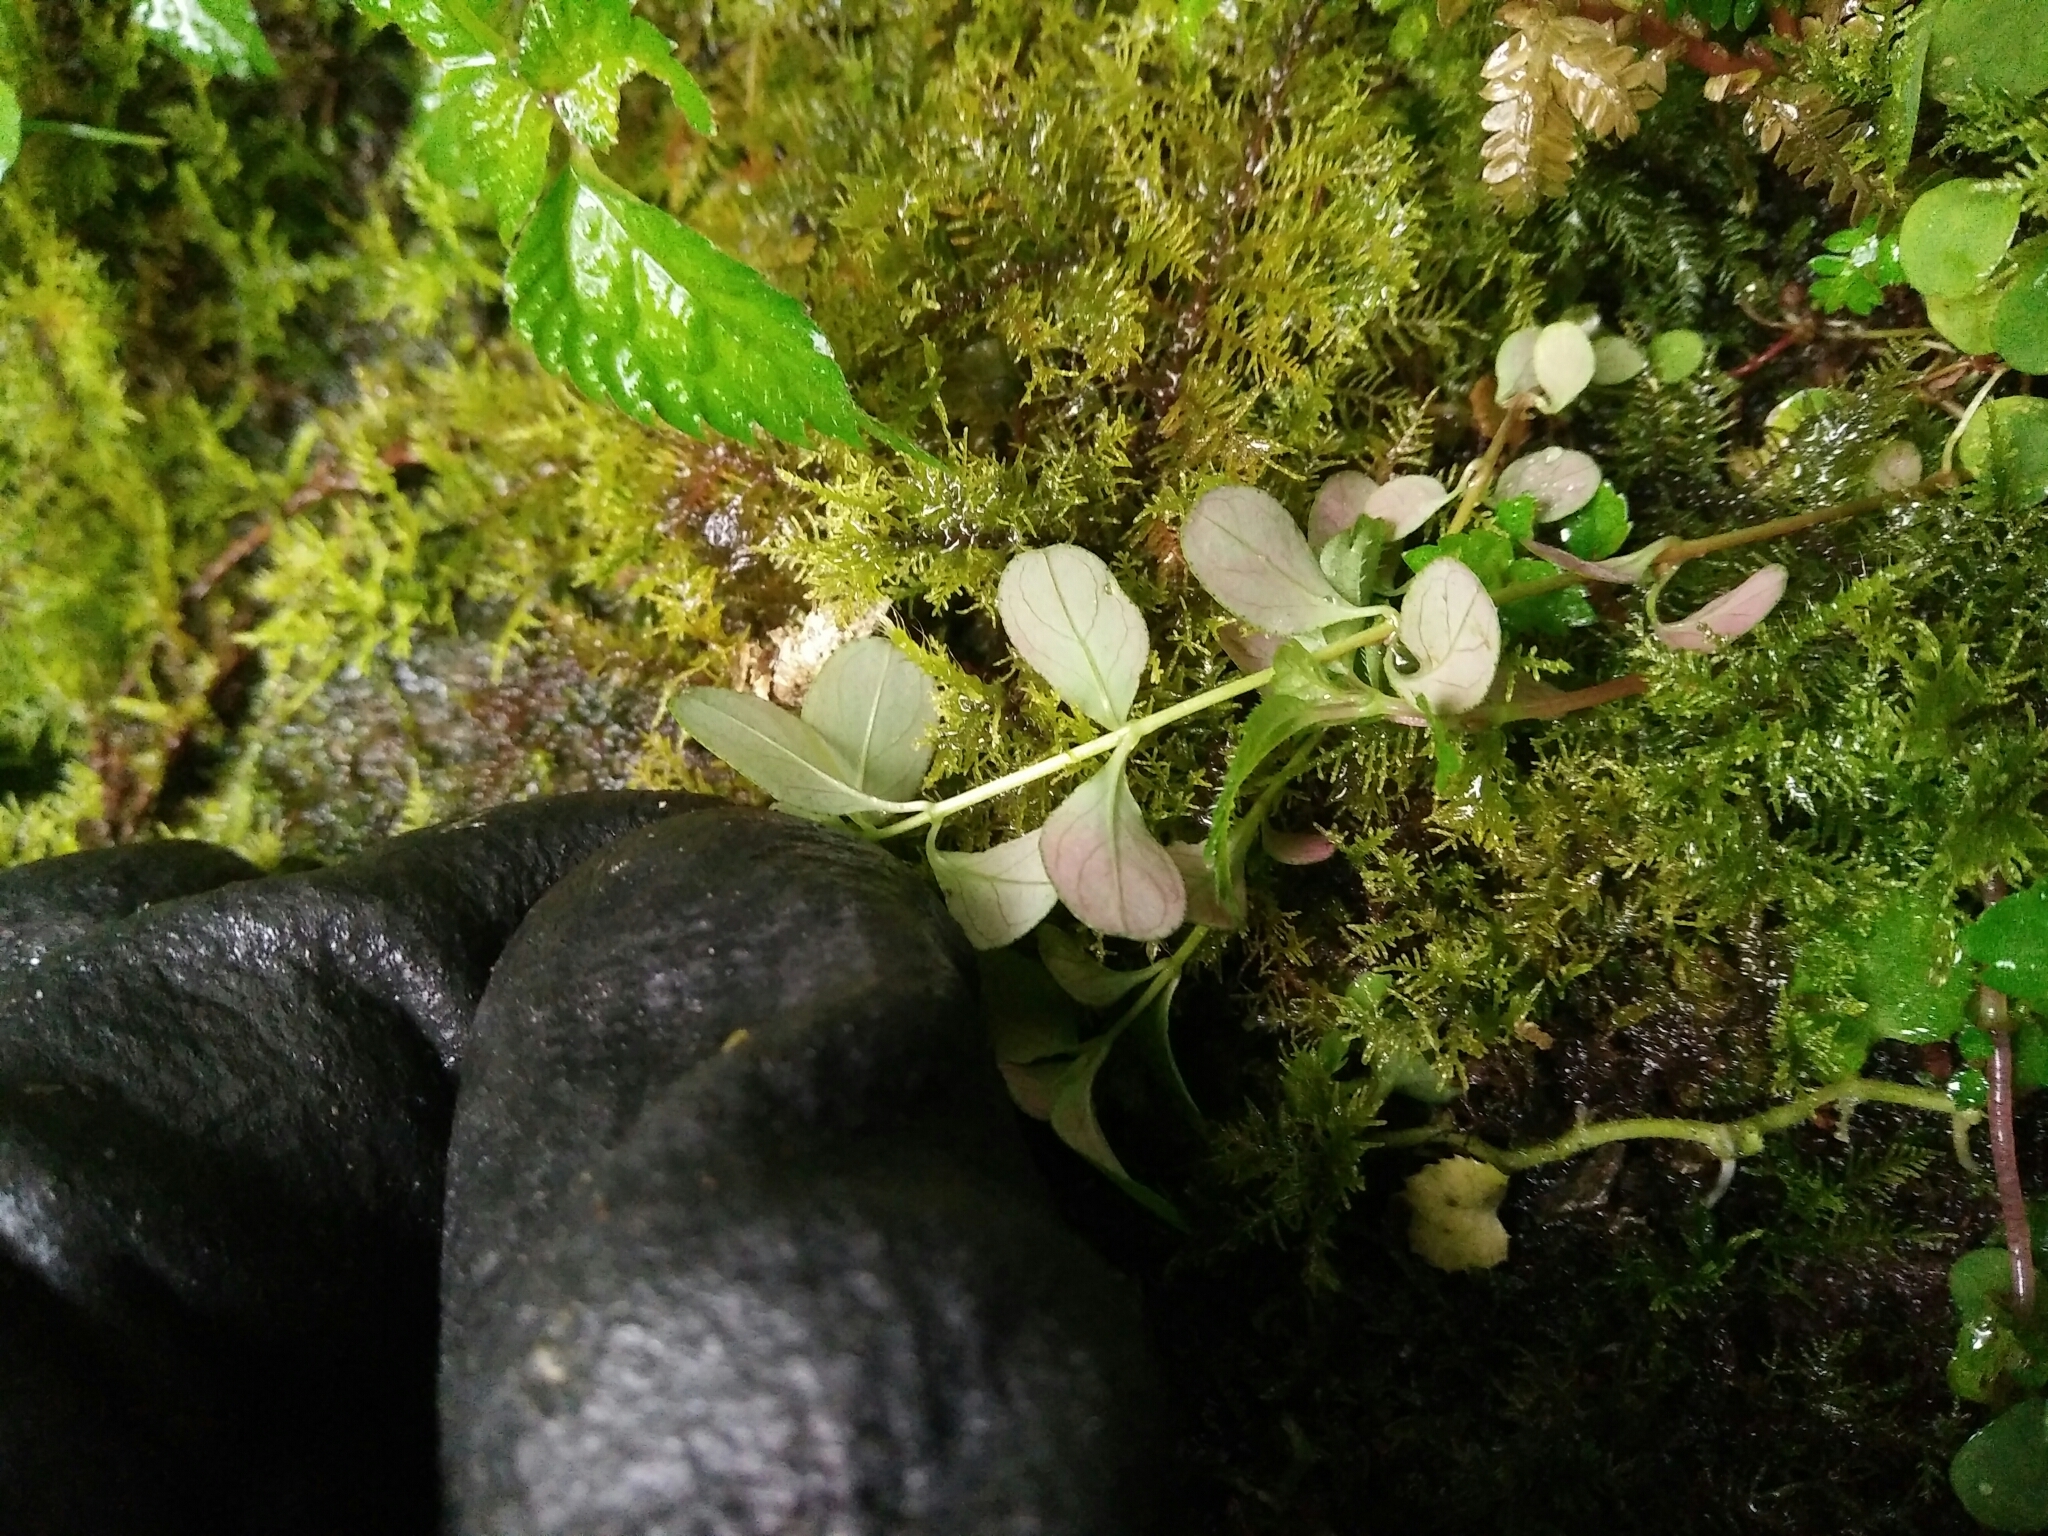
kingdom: Plantae
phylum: Tracheophyta
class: Magnoliopsida
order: Malpighiales
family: Hypericaceae
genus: Hypericum
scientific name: Hypericum taihezanense
